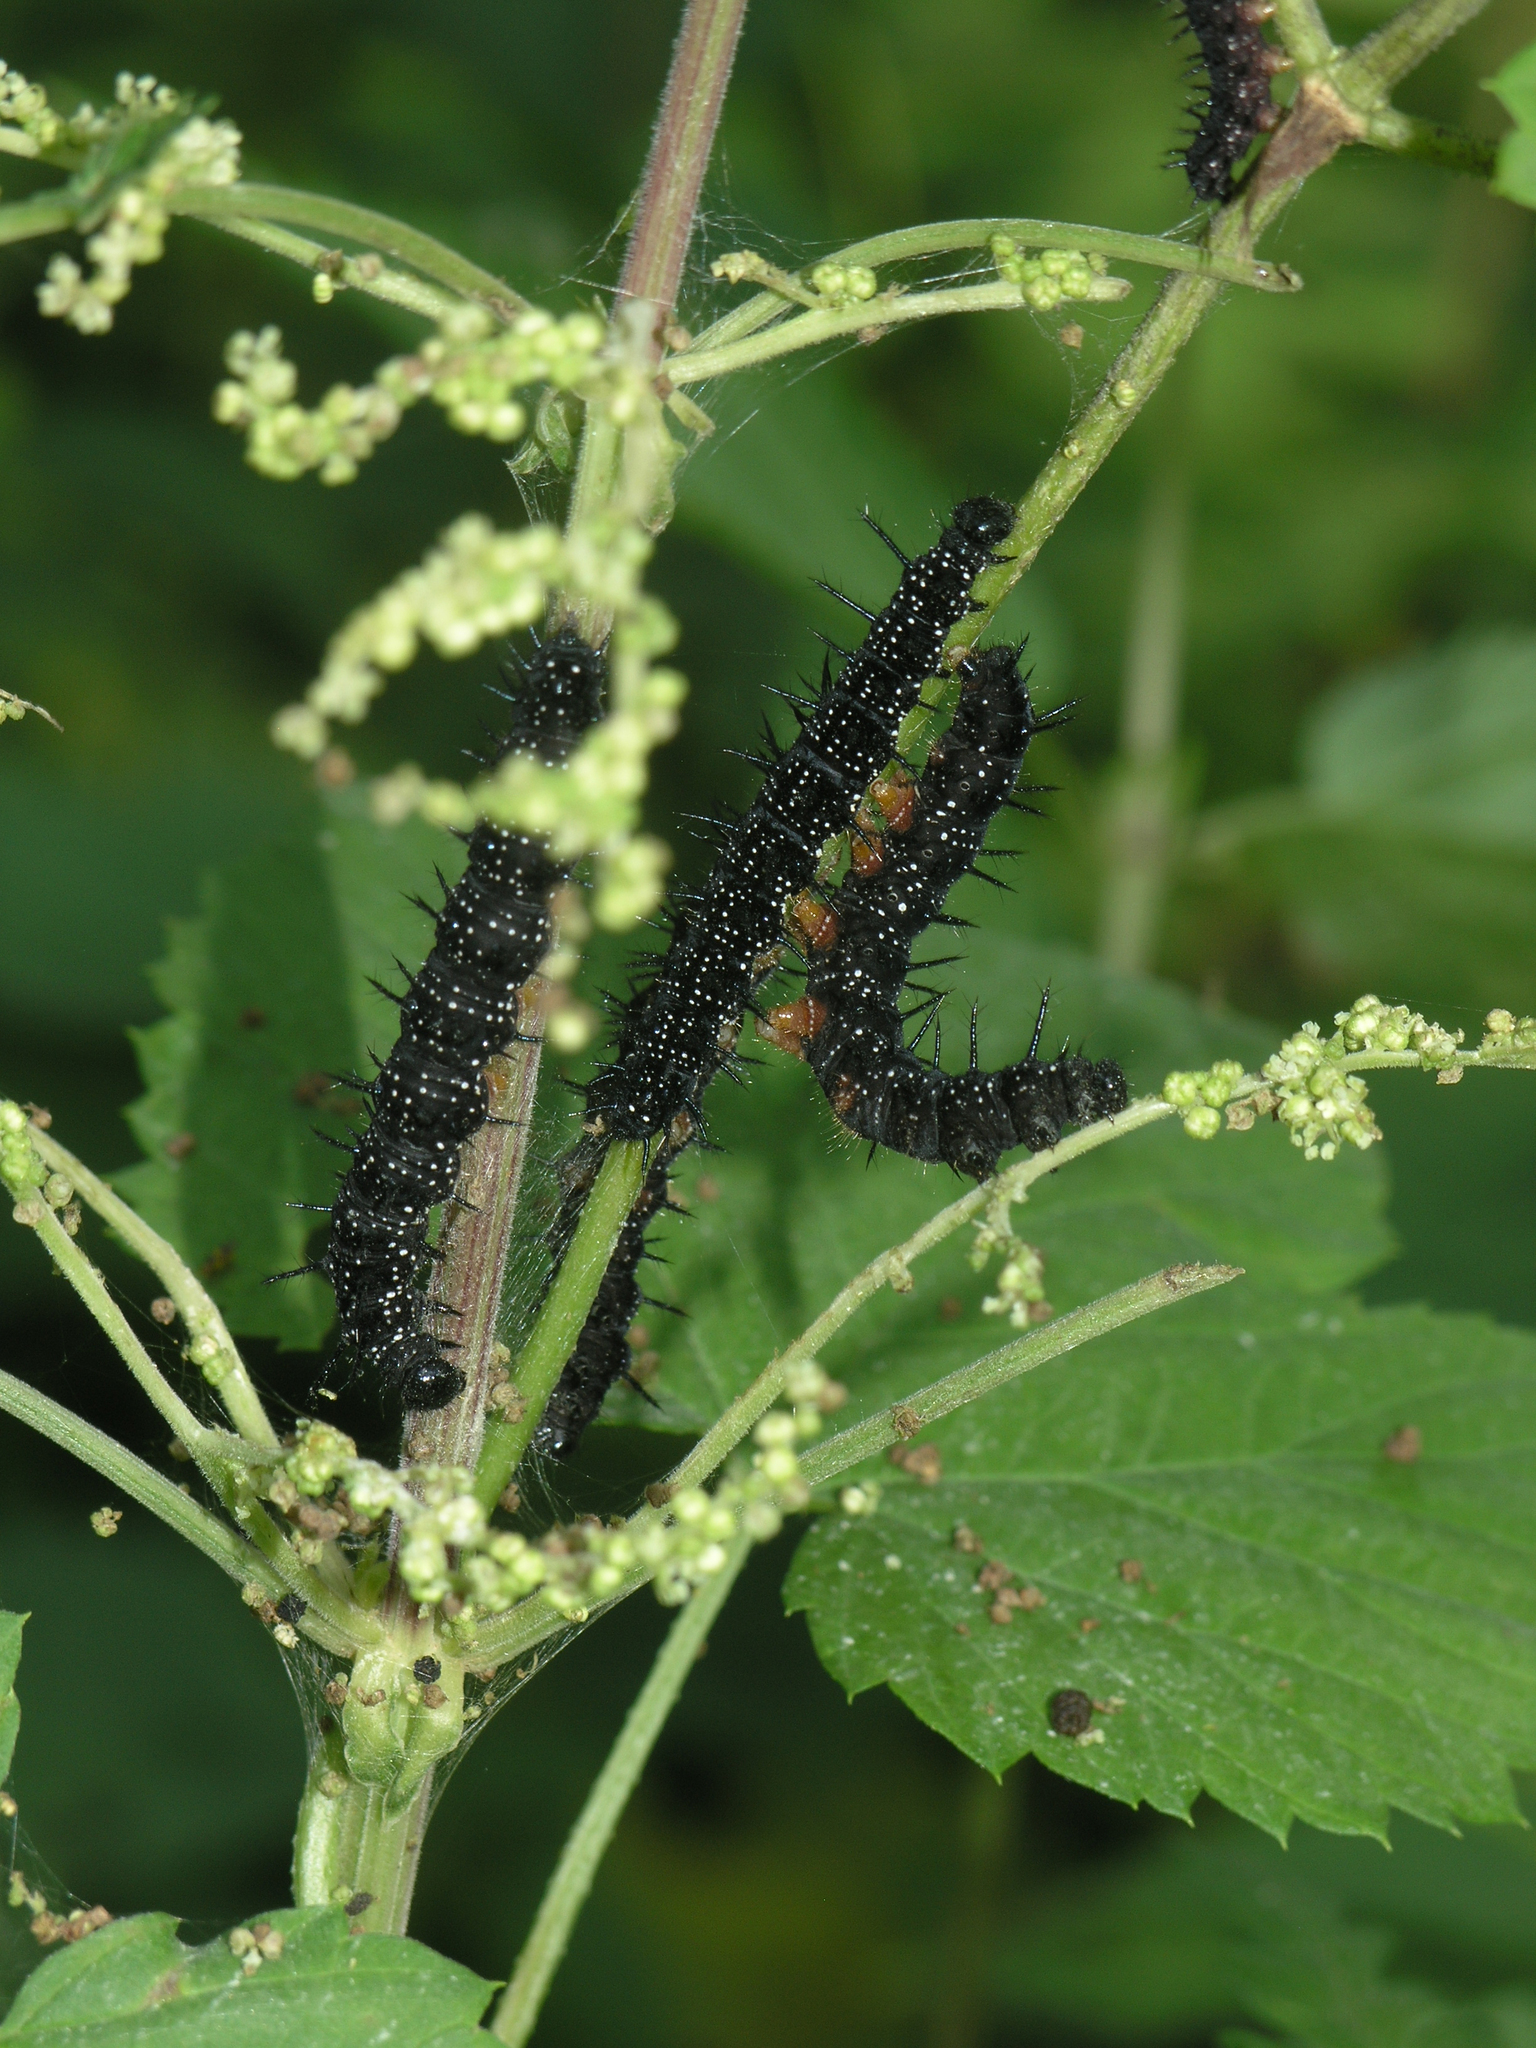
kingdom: Animalia
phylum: Arthropoda
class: Insecta
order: Lepidoptera
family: Nymphalidae
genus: Aglais
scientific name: Aglais io
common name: Peacock
